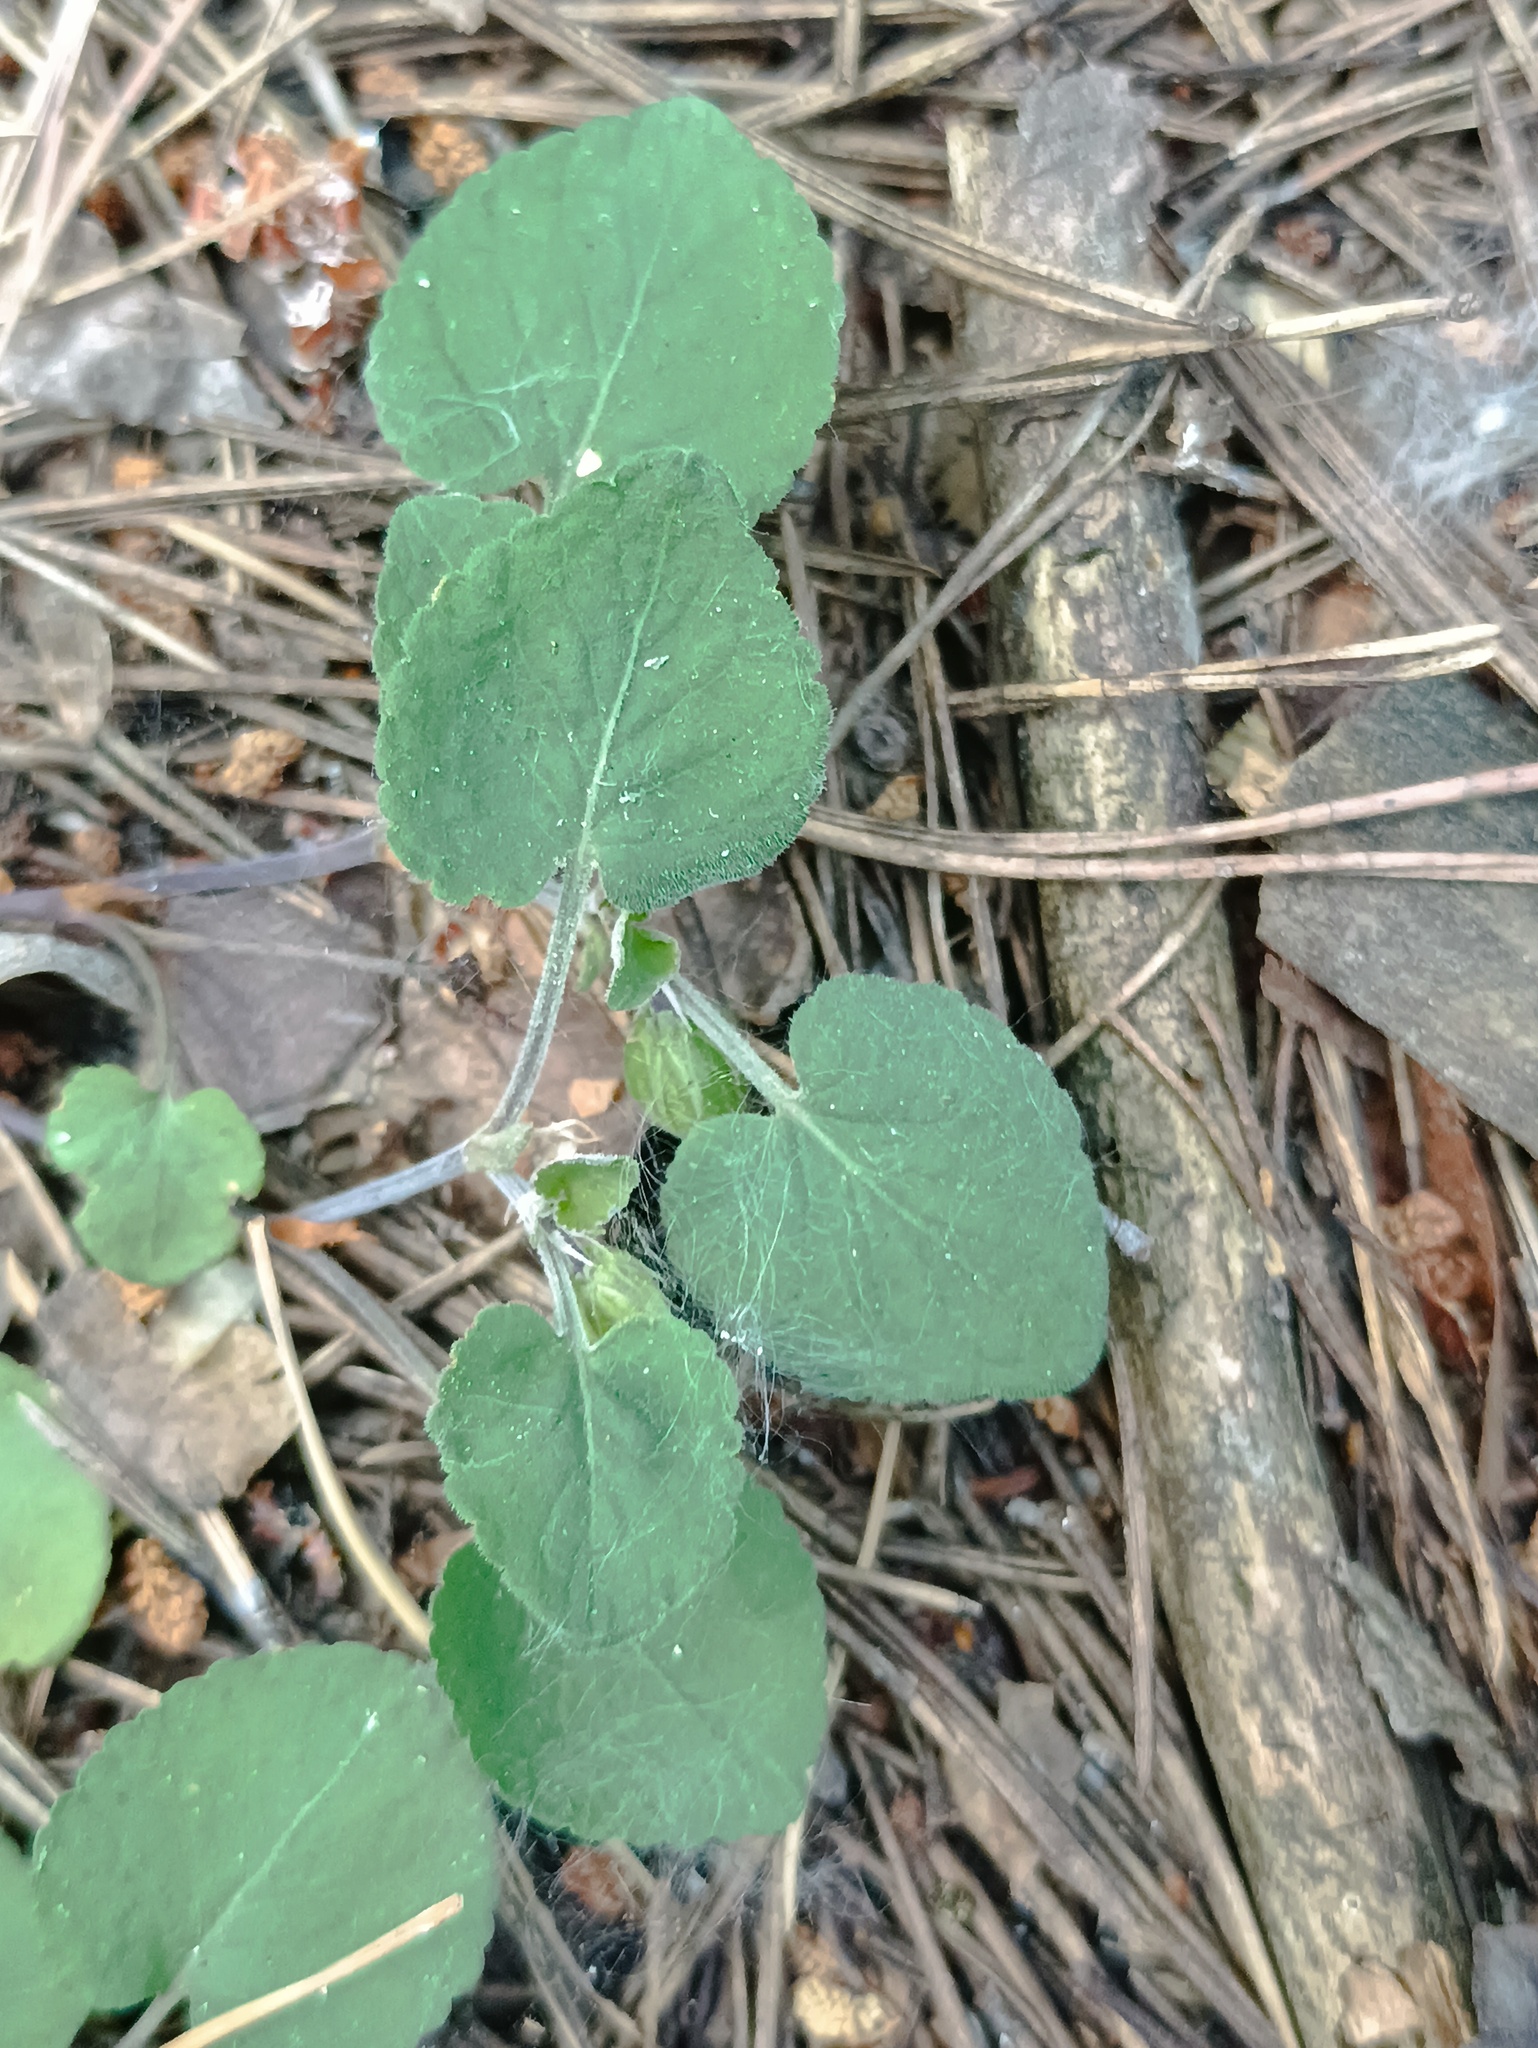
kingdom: Plantae
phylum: Tracheophyta
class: Magnoliopsida
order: Malpighiales
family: Violaceae
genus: Viola
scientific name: Viola rupestris
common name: Teesdale violet
